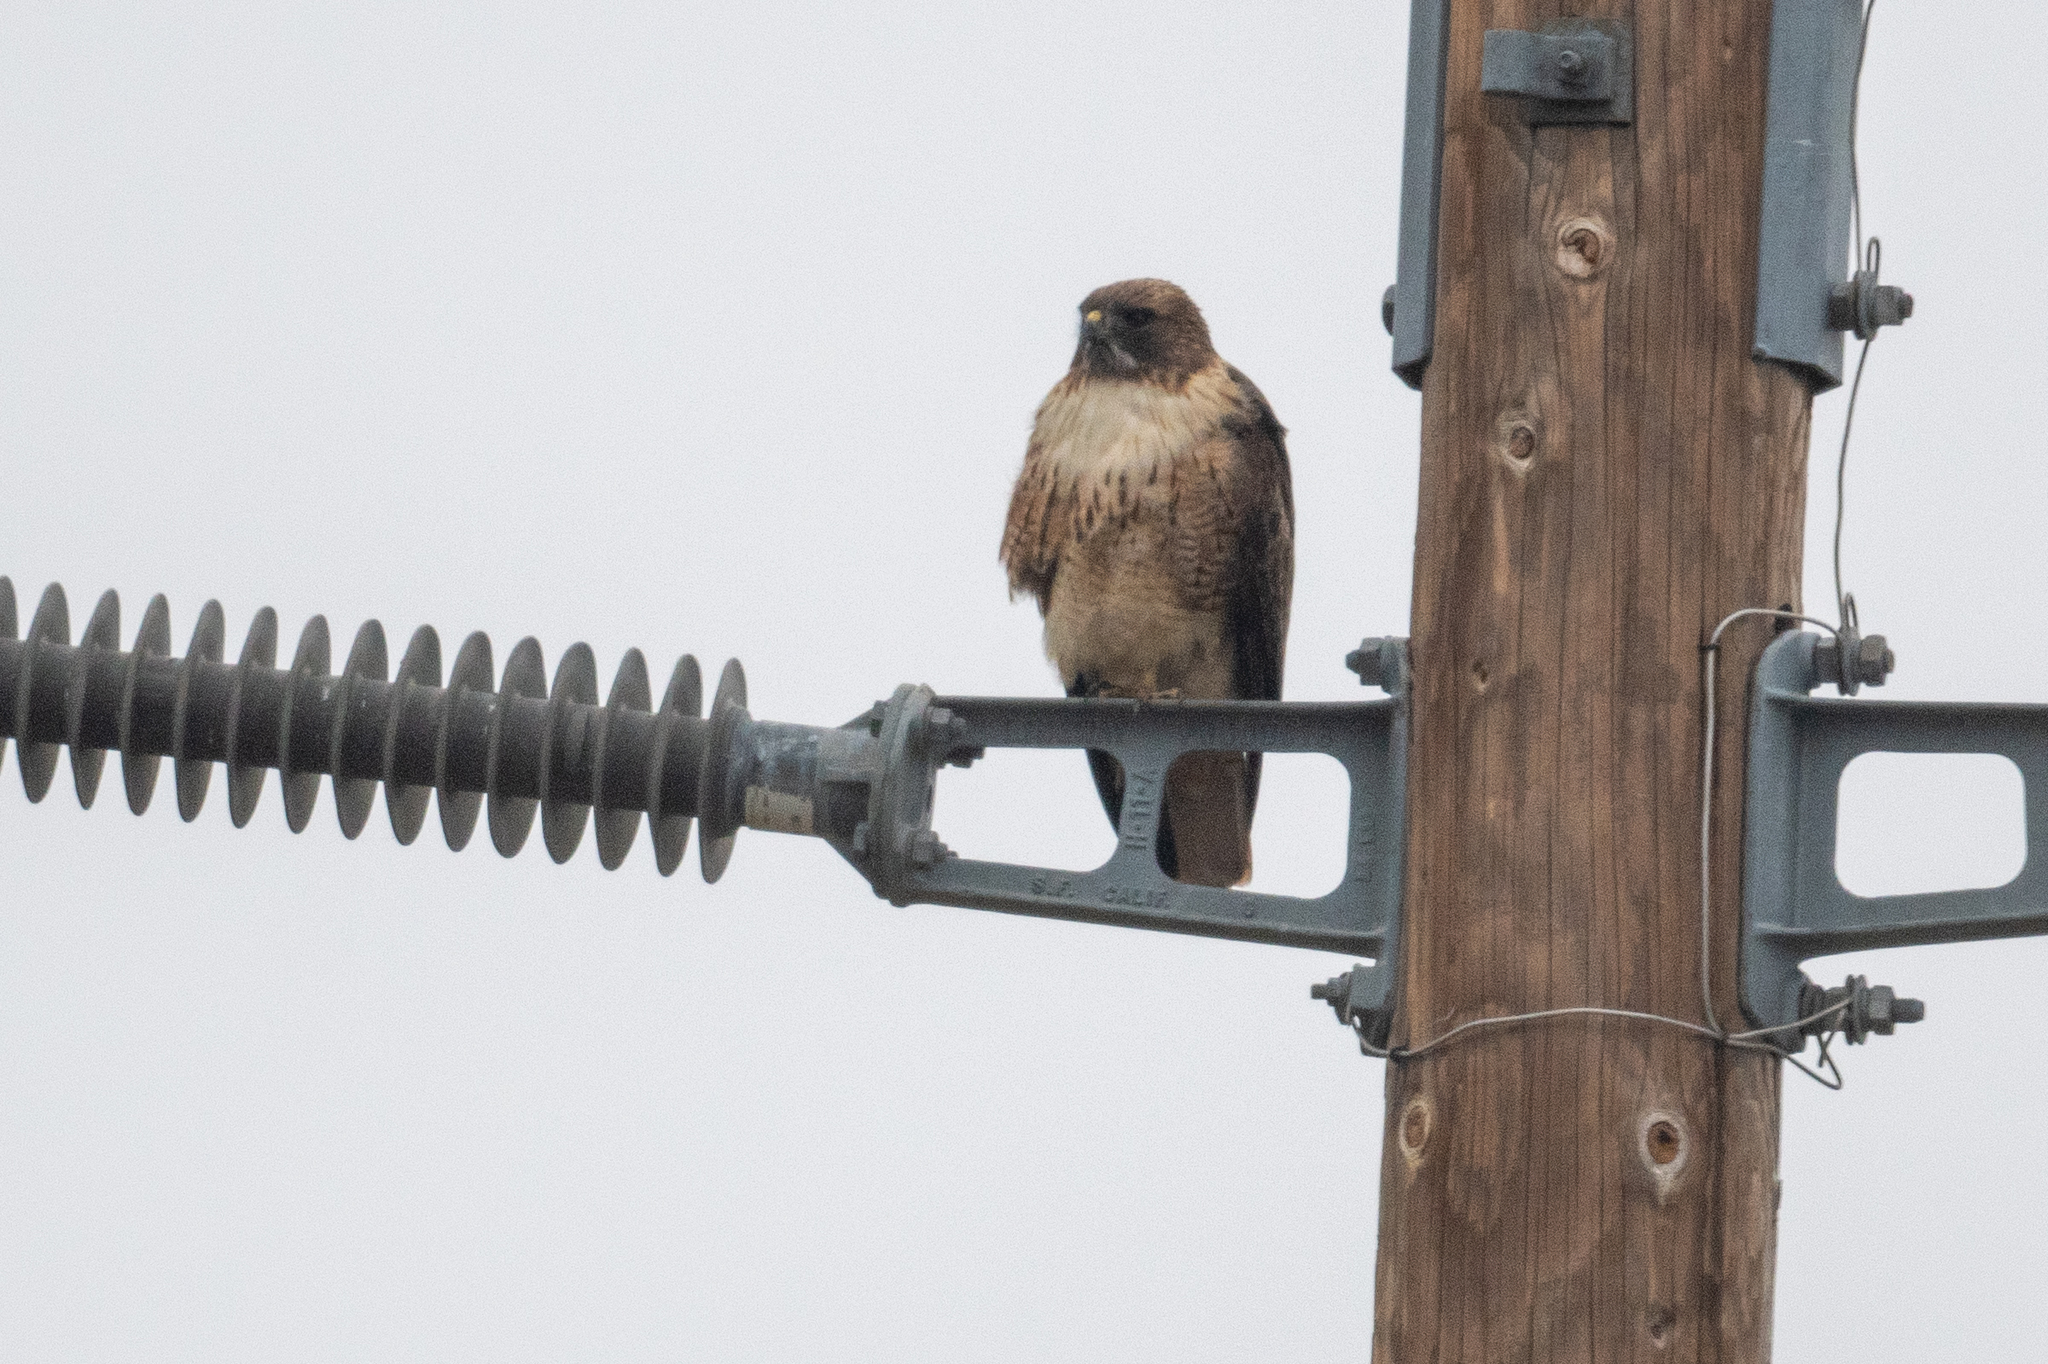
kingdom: Animalia
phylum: Chordata
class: Aves
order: Accipitriformes
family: Accipitridae
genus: Buteo
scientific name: Buteo jamaicensis
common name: Red-tailed hawk
